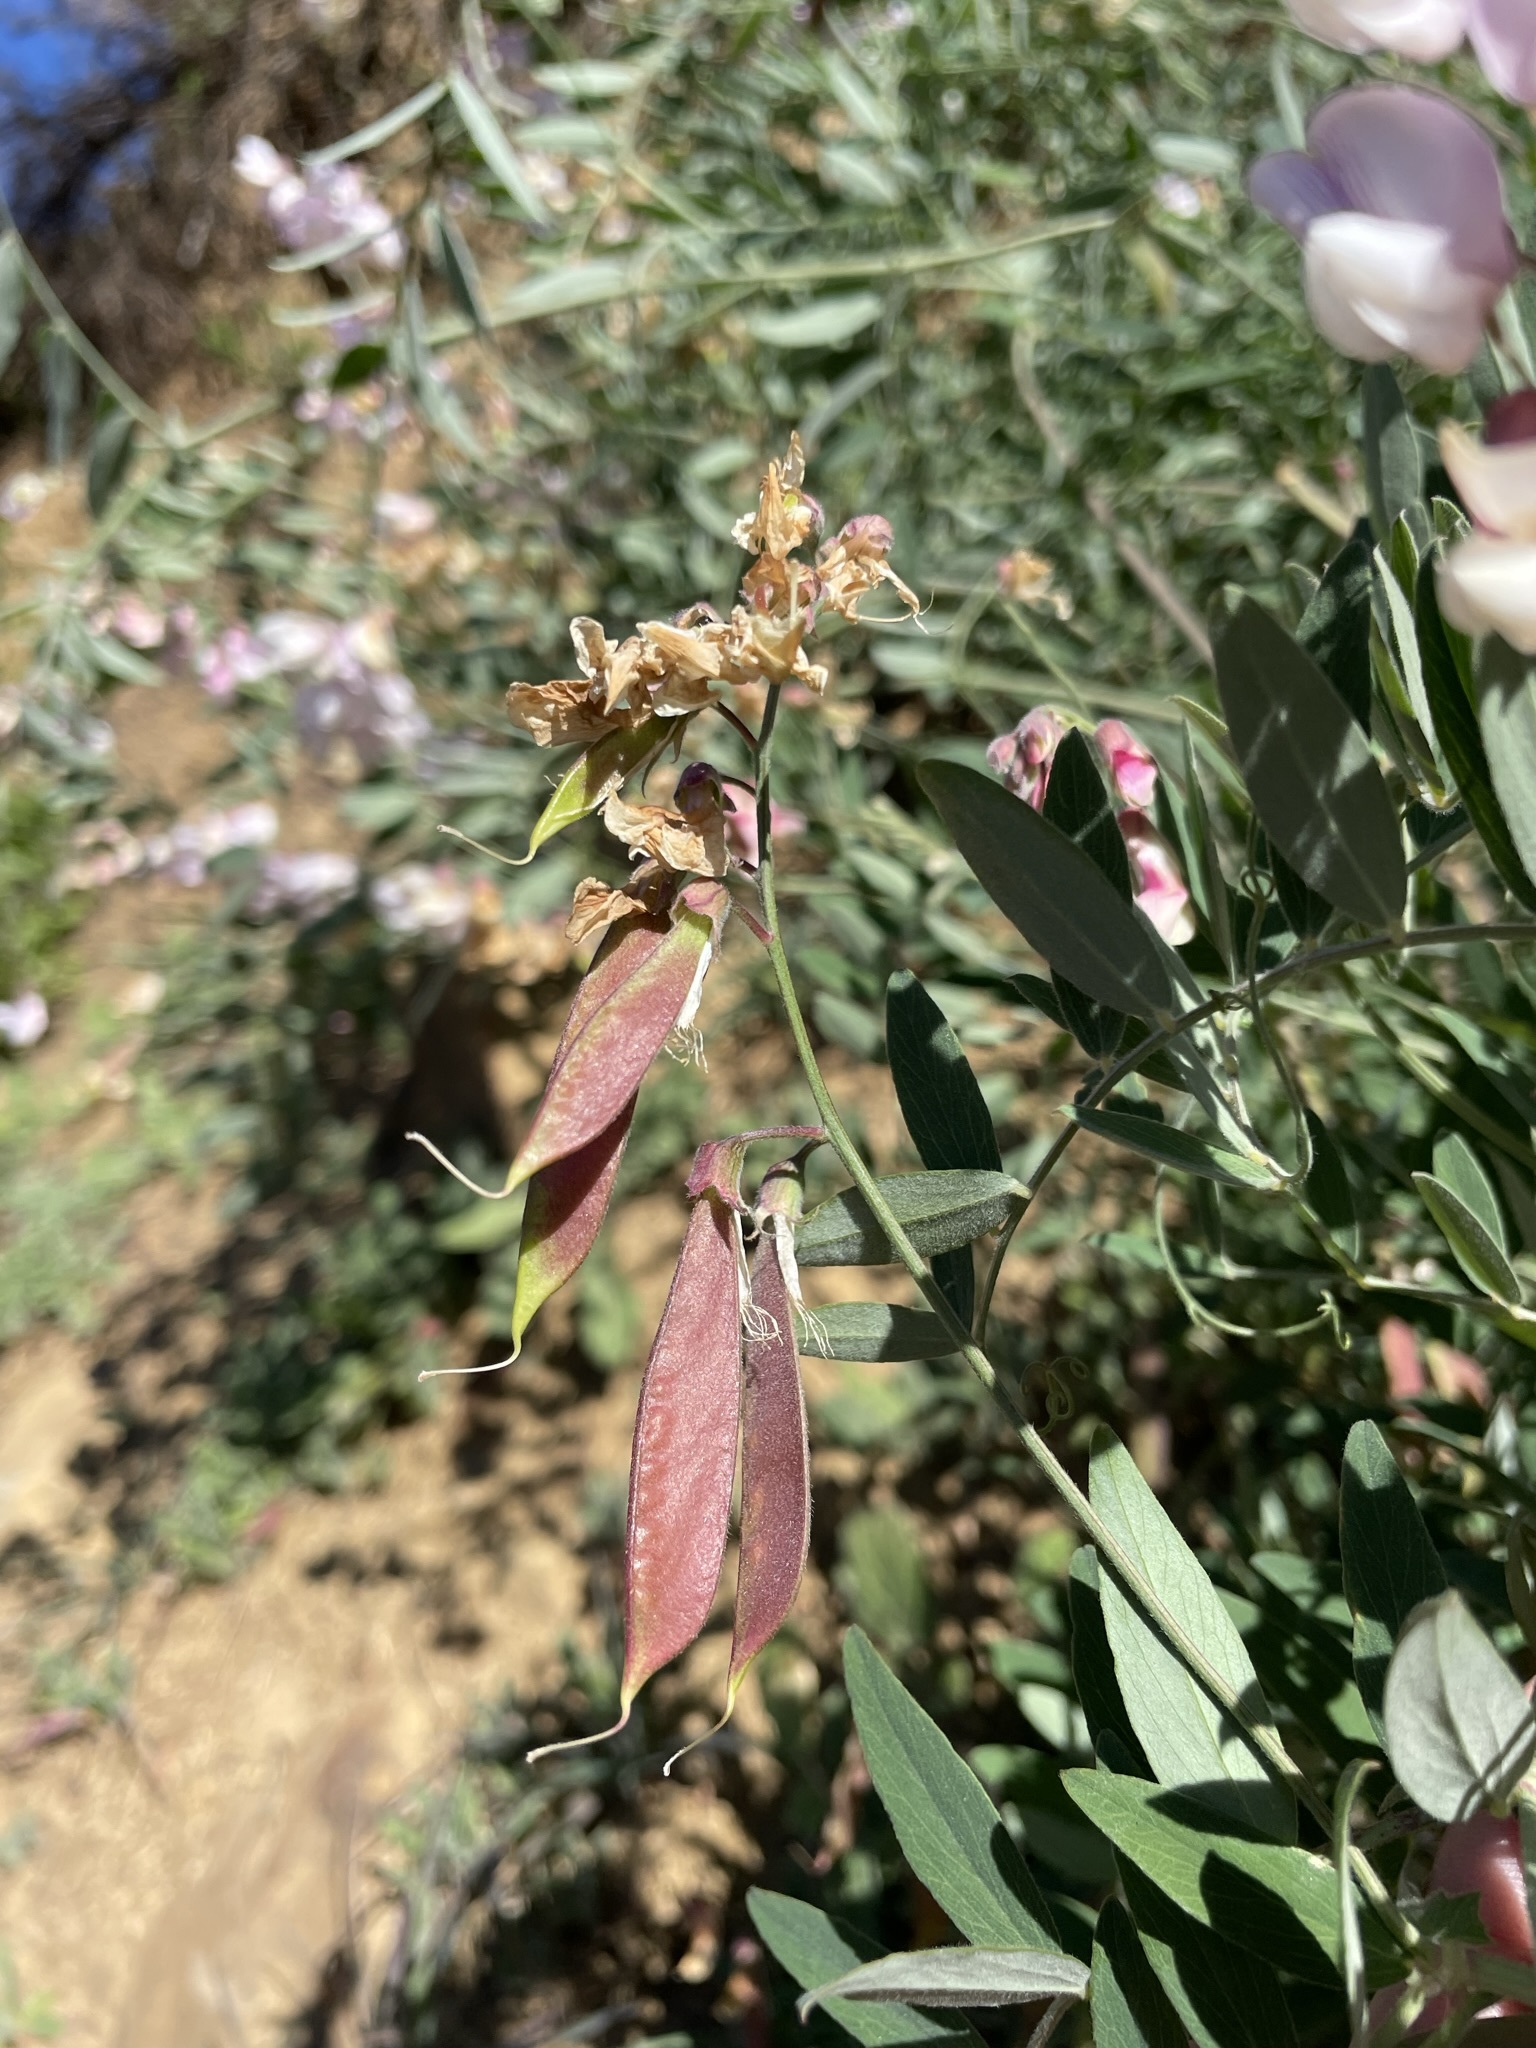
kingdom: Plantae
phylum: Tracheophyta
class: Magnoliopsida
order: Fabales
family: Fabaceae
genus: Lathyrus
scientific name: Lathyrus vestitus
